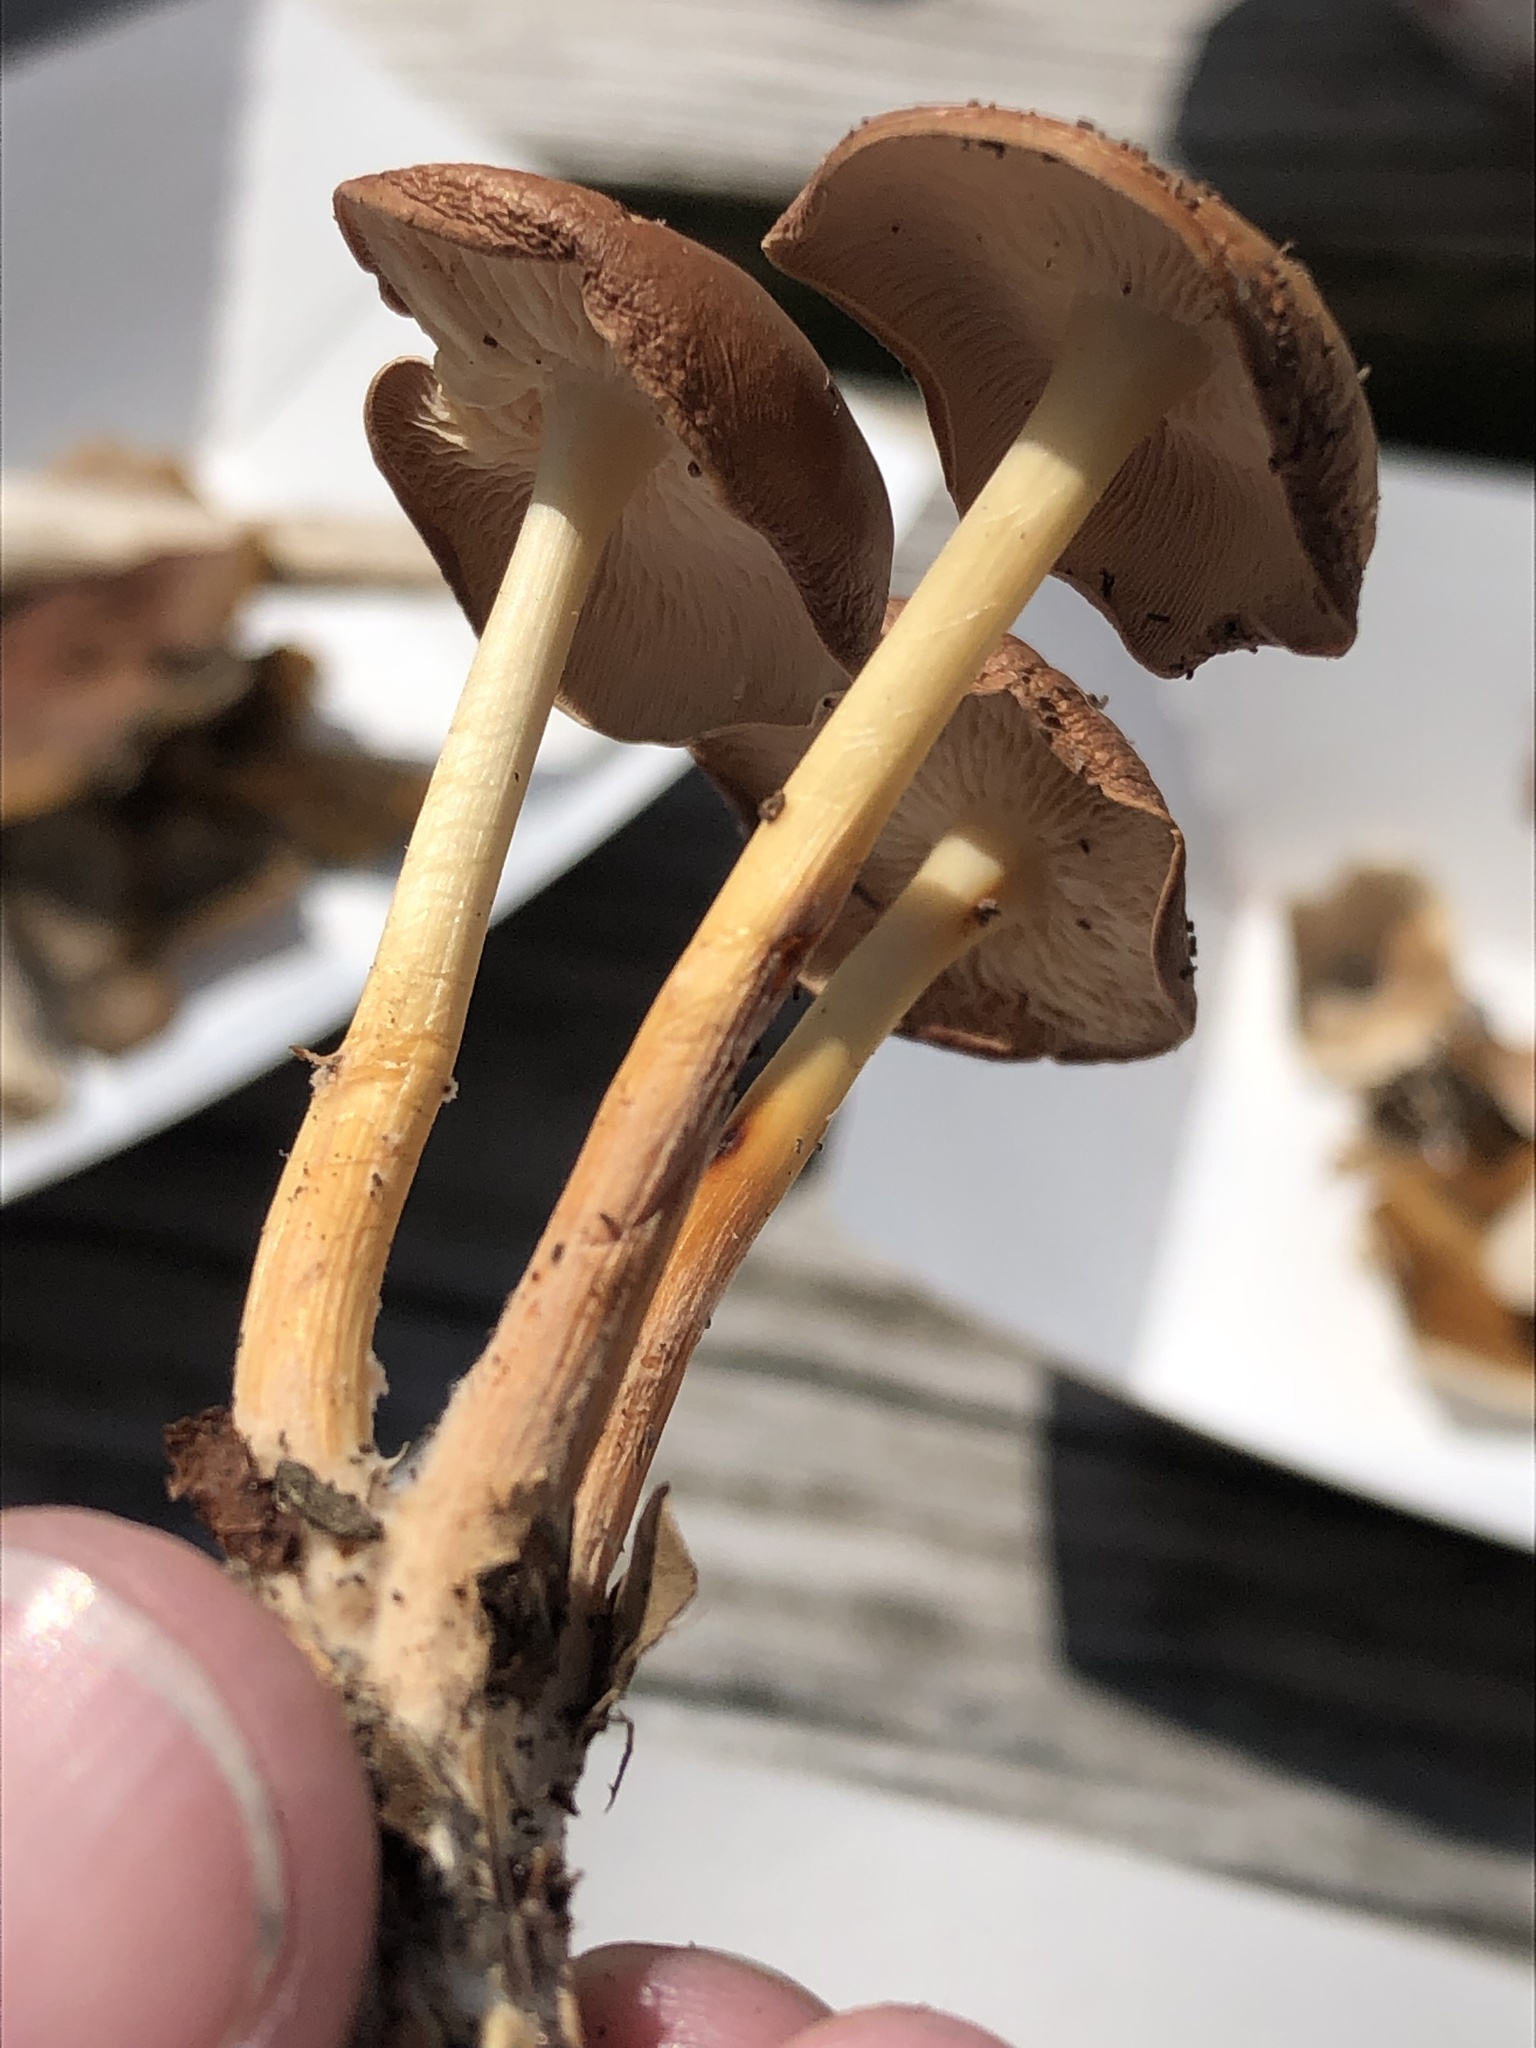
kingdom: Fungi
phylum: Basidiomycota
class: Agaricomycetes
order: Agaricales
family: Omphalotaceae
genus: Rhodocollybia
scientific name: Rhodocollybia butyracea
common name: Butter cap
